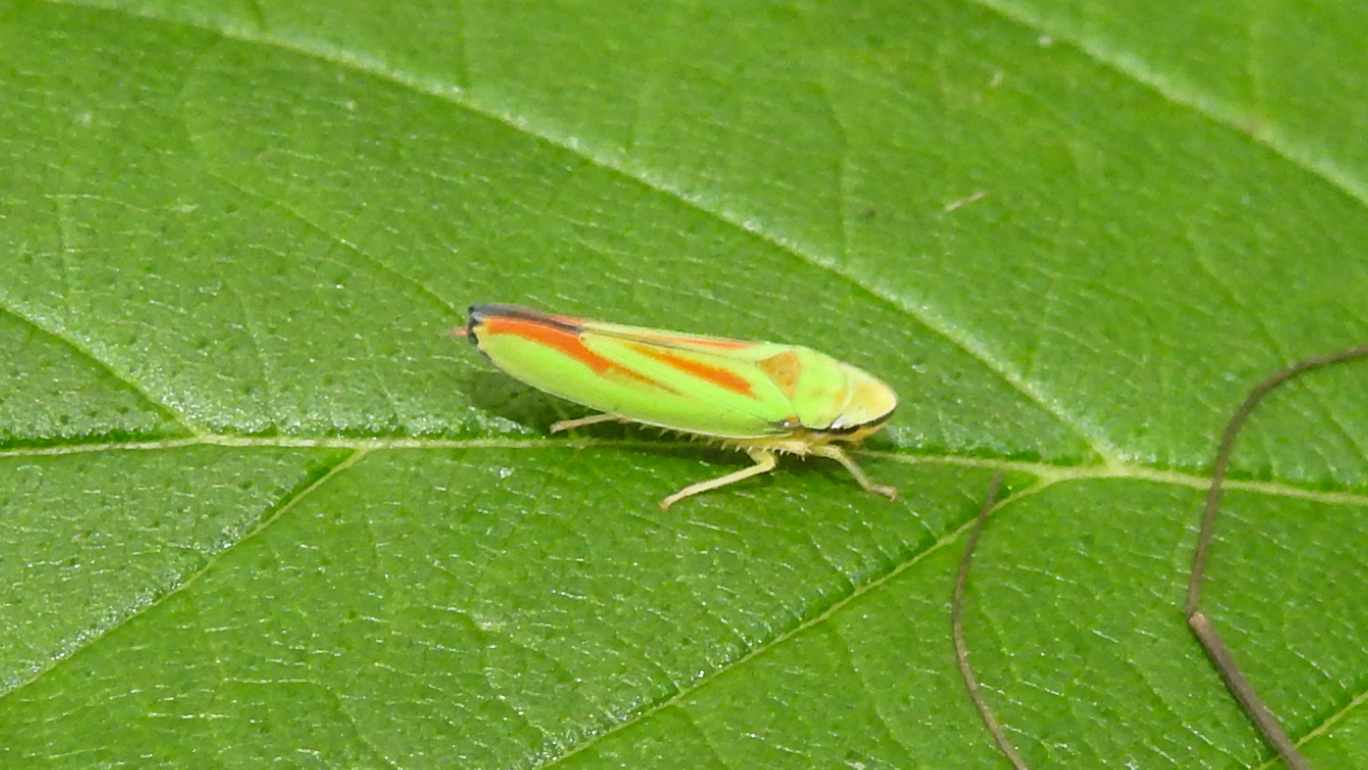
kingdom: Animalia
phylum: Arthropoda
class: Insecta
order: Hemiptera
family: Cicadellidae
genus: Graphocephala
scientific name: Graphocephala fennahi
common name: Rhododendron leafhopper
